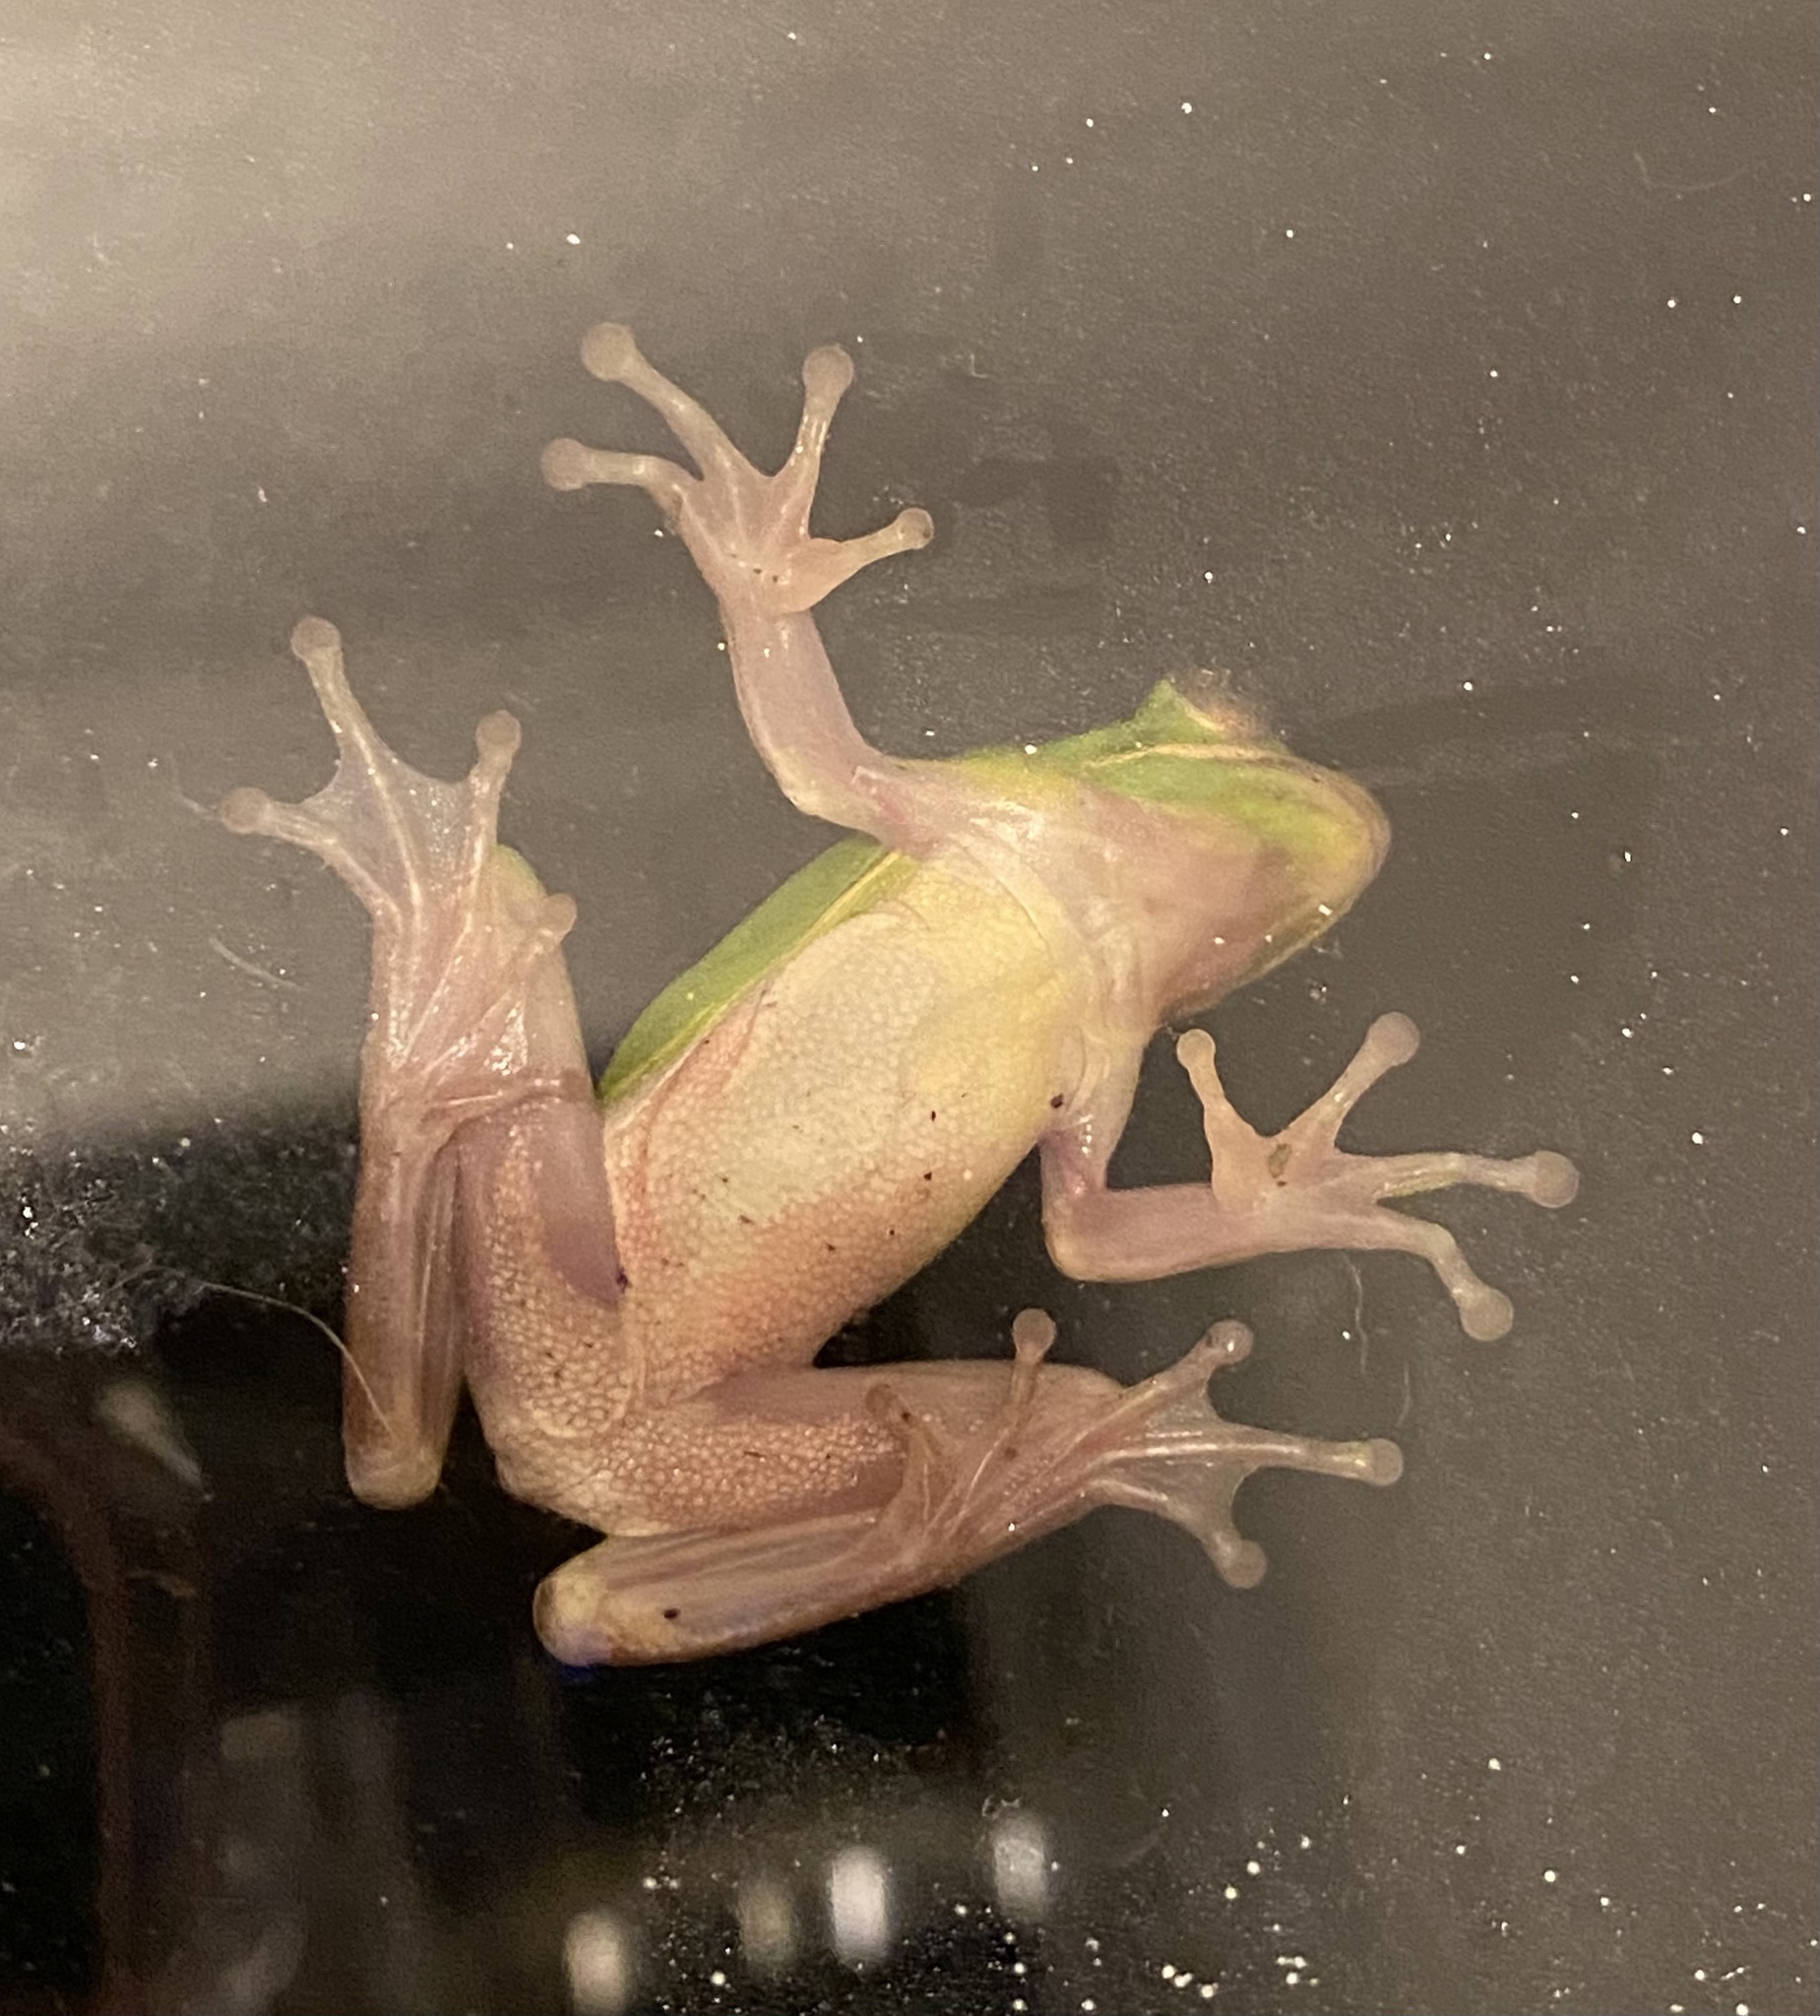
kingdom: Animalia
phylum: Chordata
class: Amphibia
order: Anura
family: Hylidae
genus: Dryophytes
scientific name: Dryophytes cinereus
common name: Green treefrog
